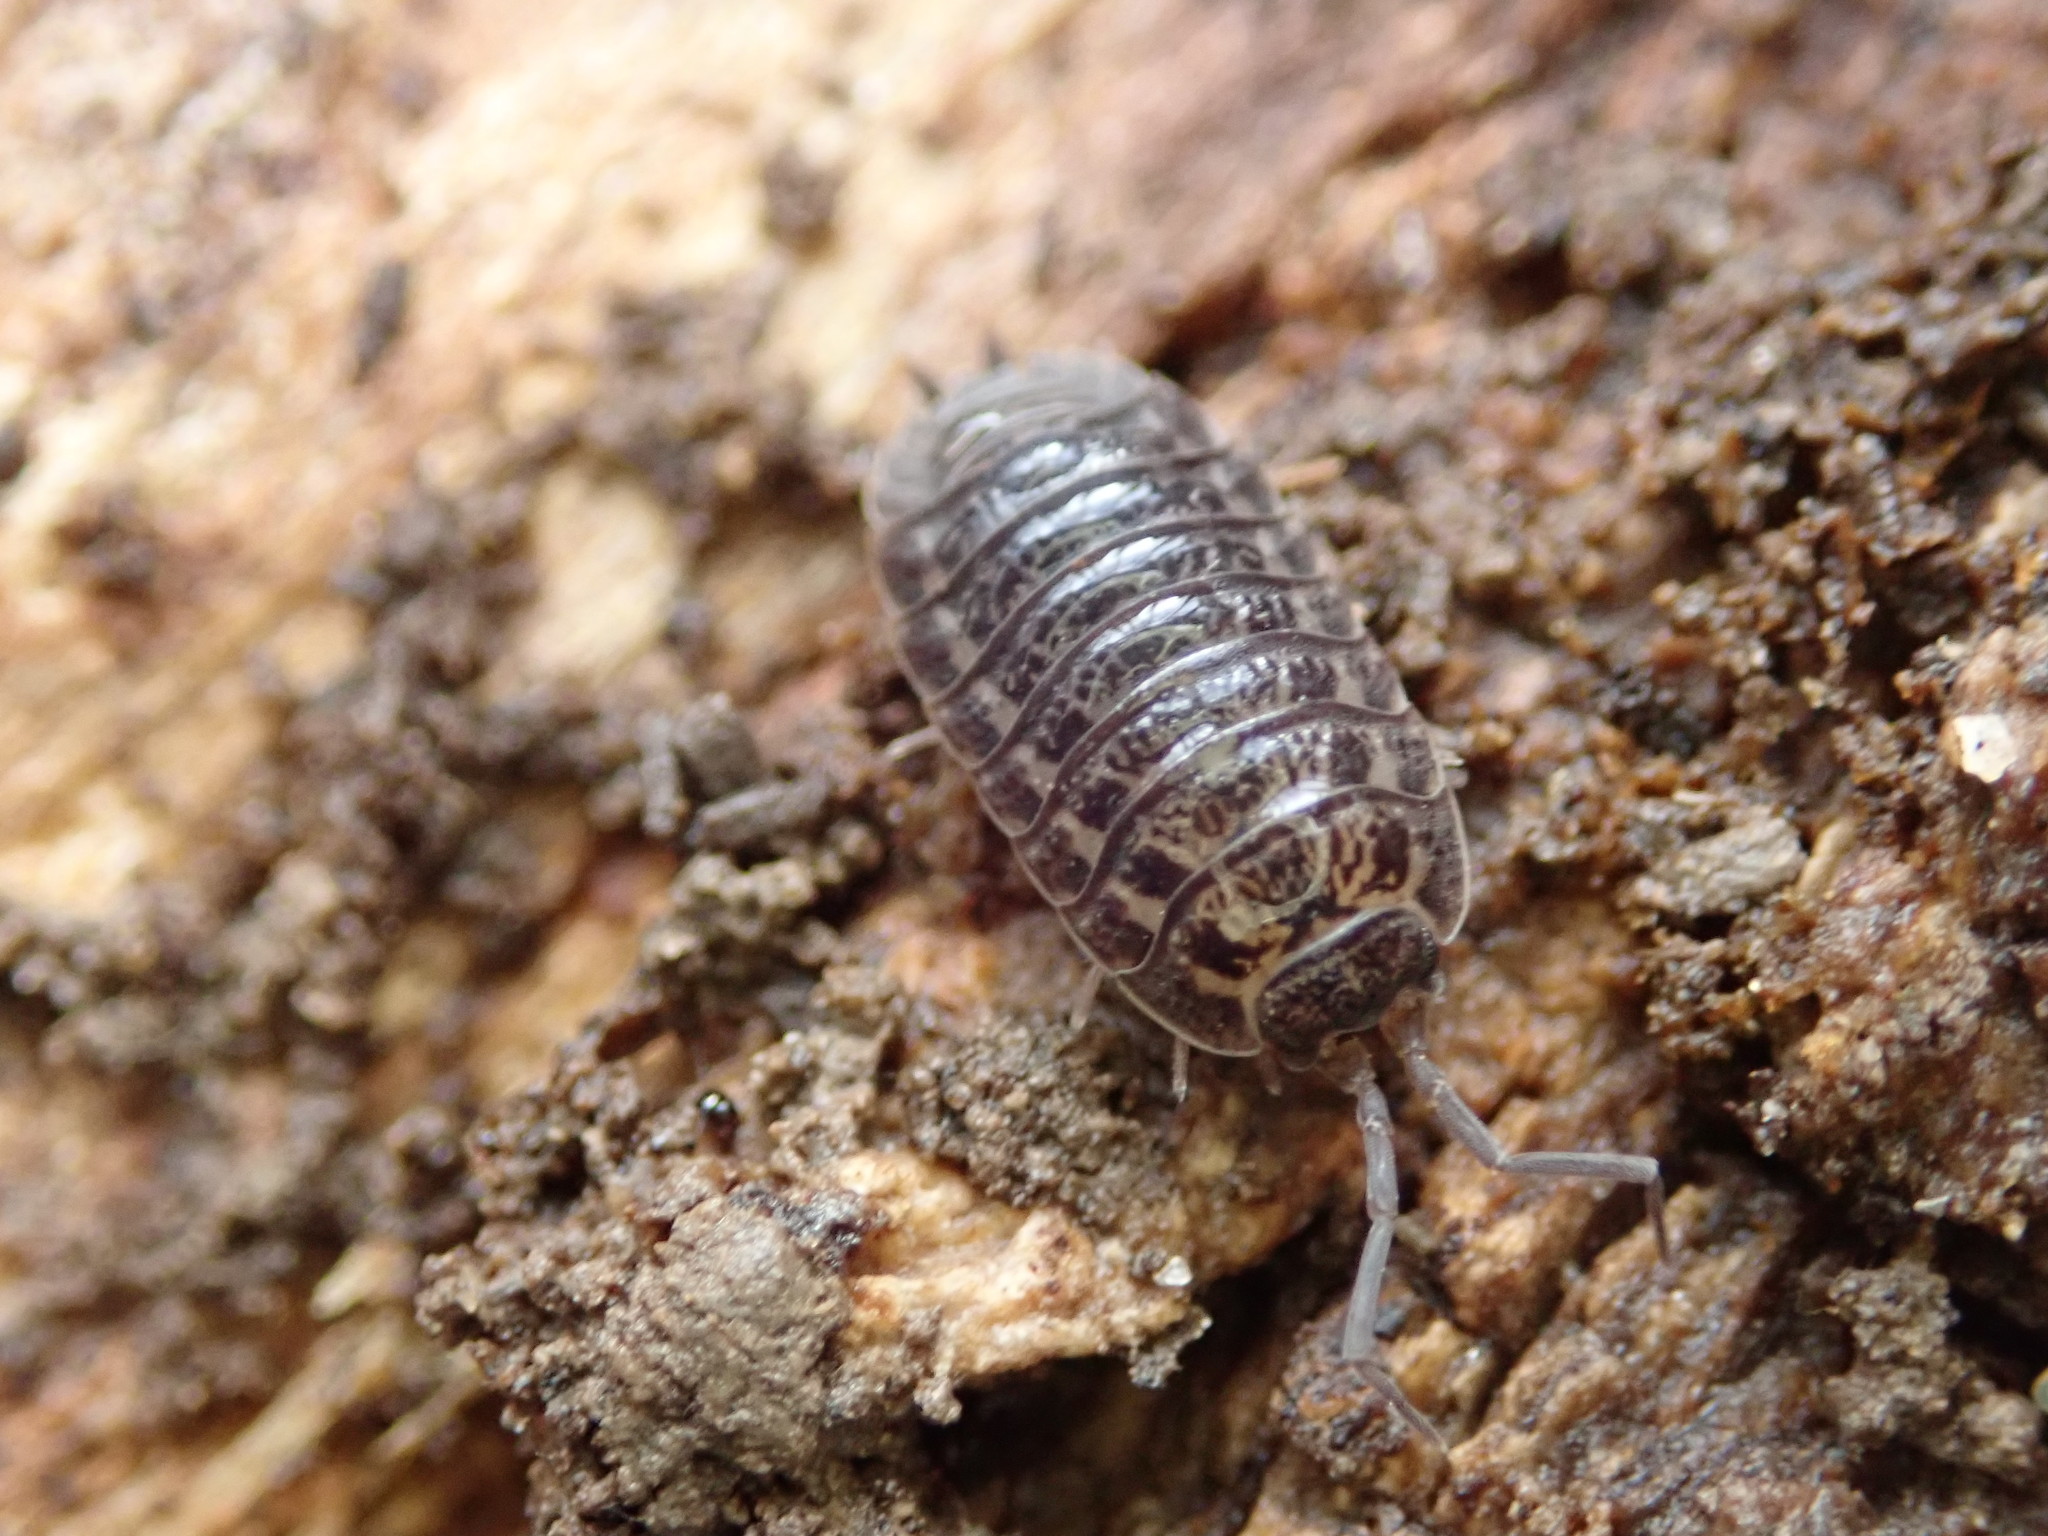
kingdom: Animalia
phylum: Arthropoda
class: Malacostraca
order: Isopoda
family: Trachelipodidae
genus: Trachelipus
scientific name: Trachelipus rathkii
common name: Isopod
